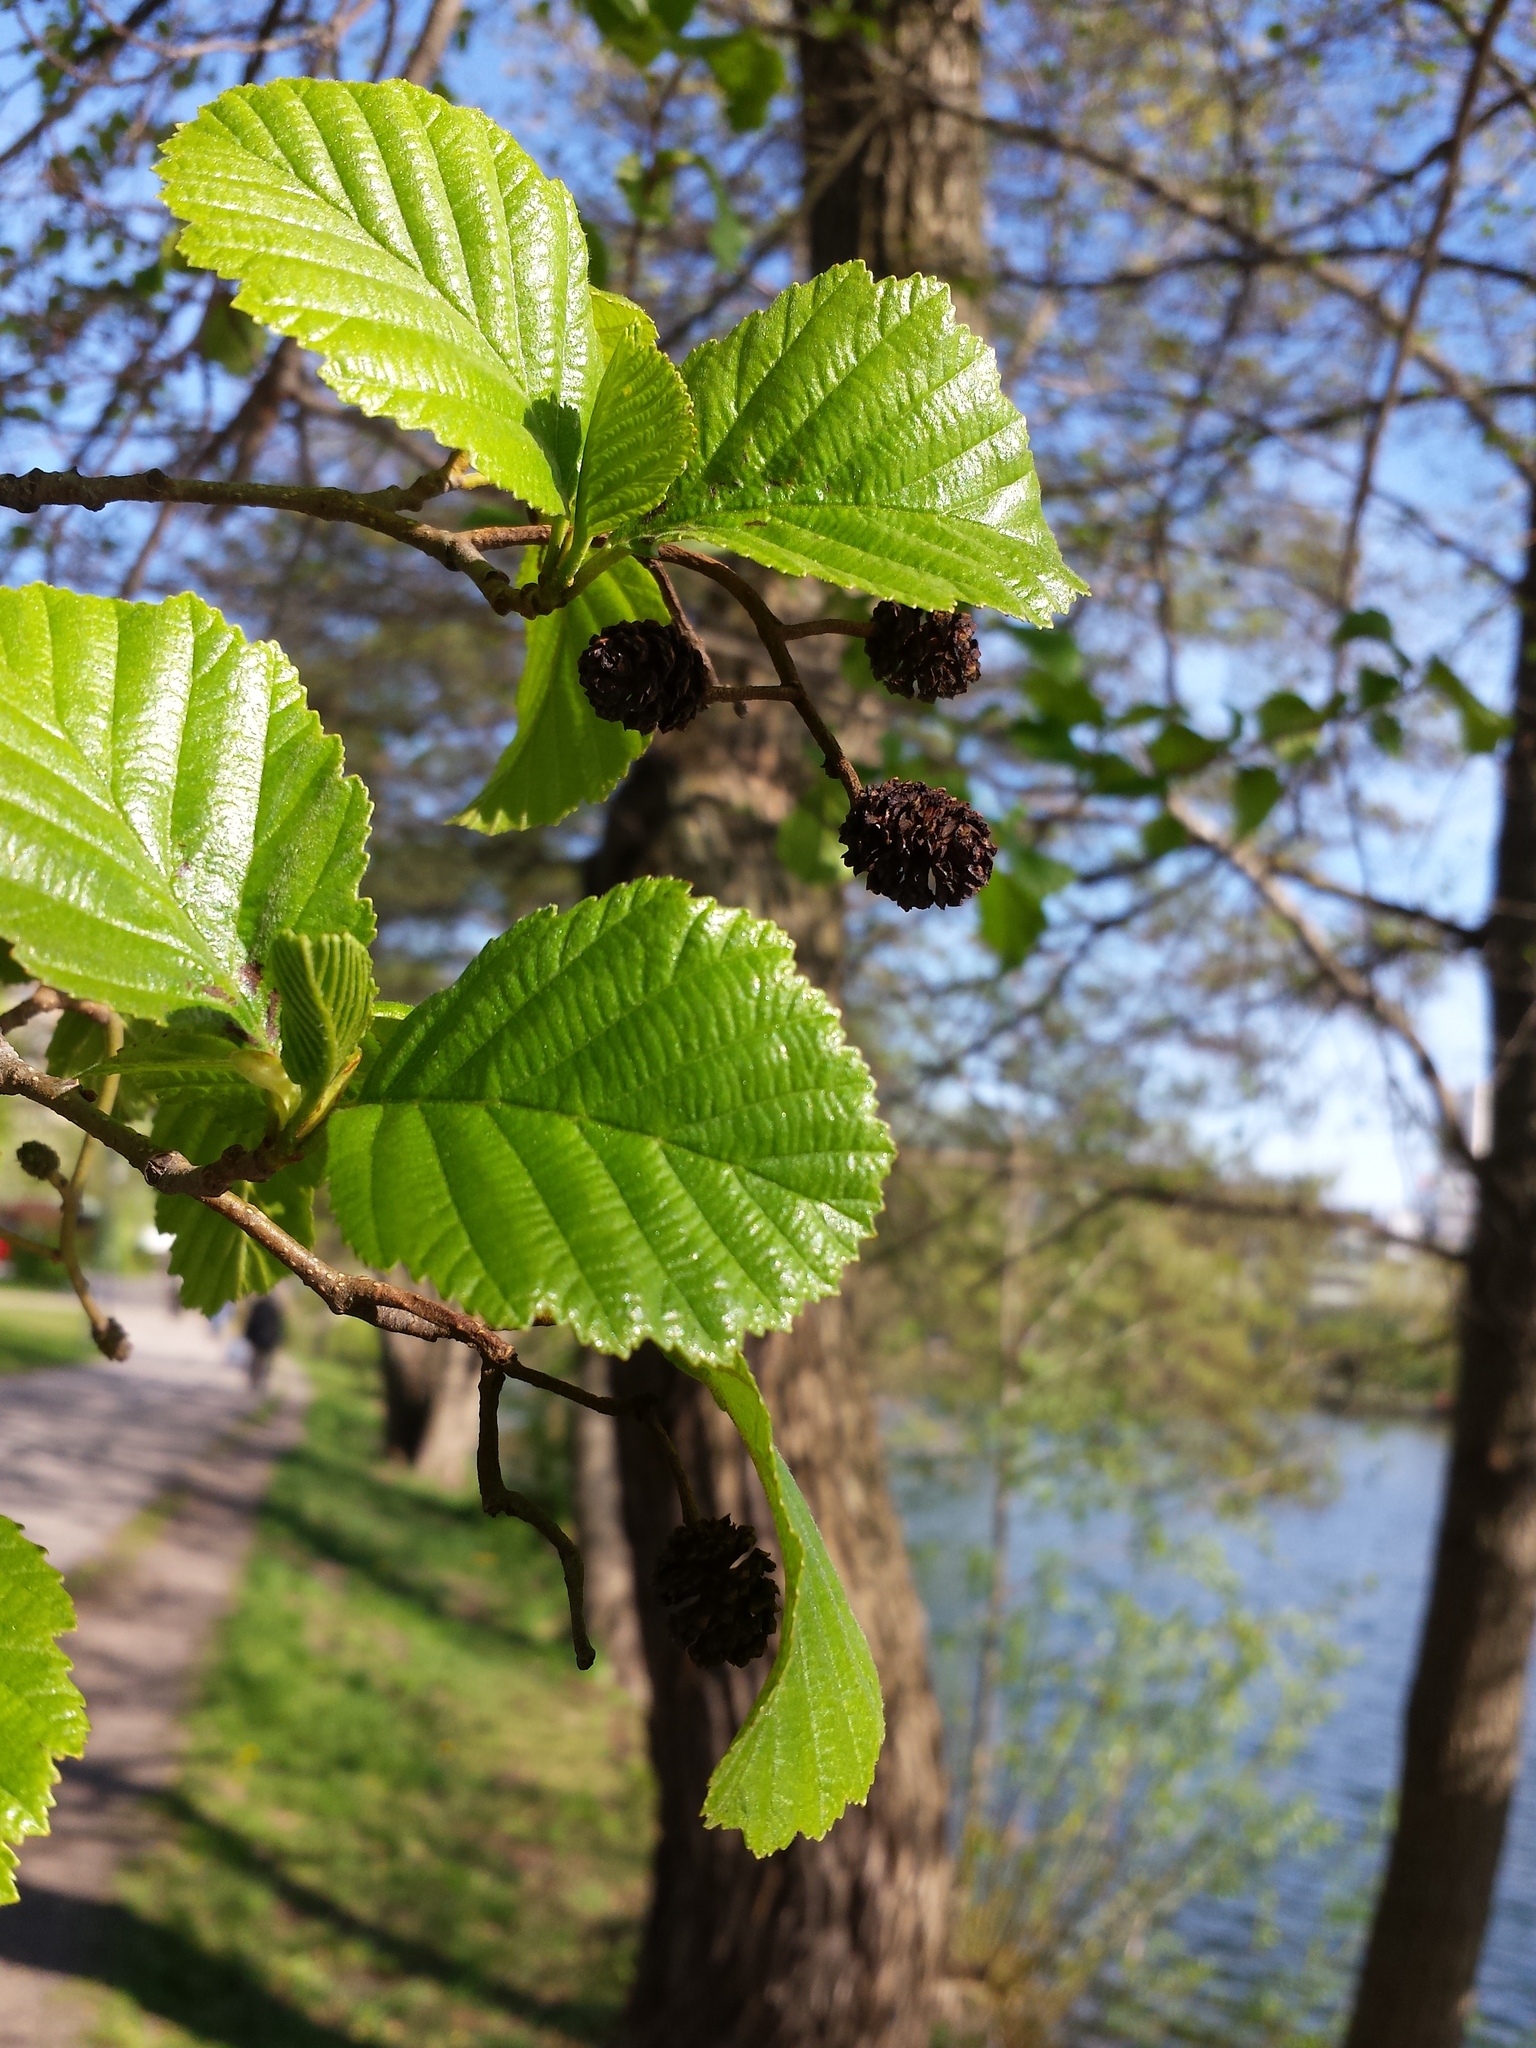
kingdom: Plantae
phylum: Tracheophyta
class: Magnoliopsida
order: Fagales
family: Betulaceae
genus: Alnus
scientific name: Alnus glutinosa
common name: Black alder
